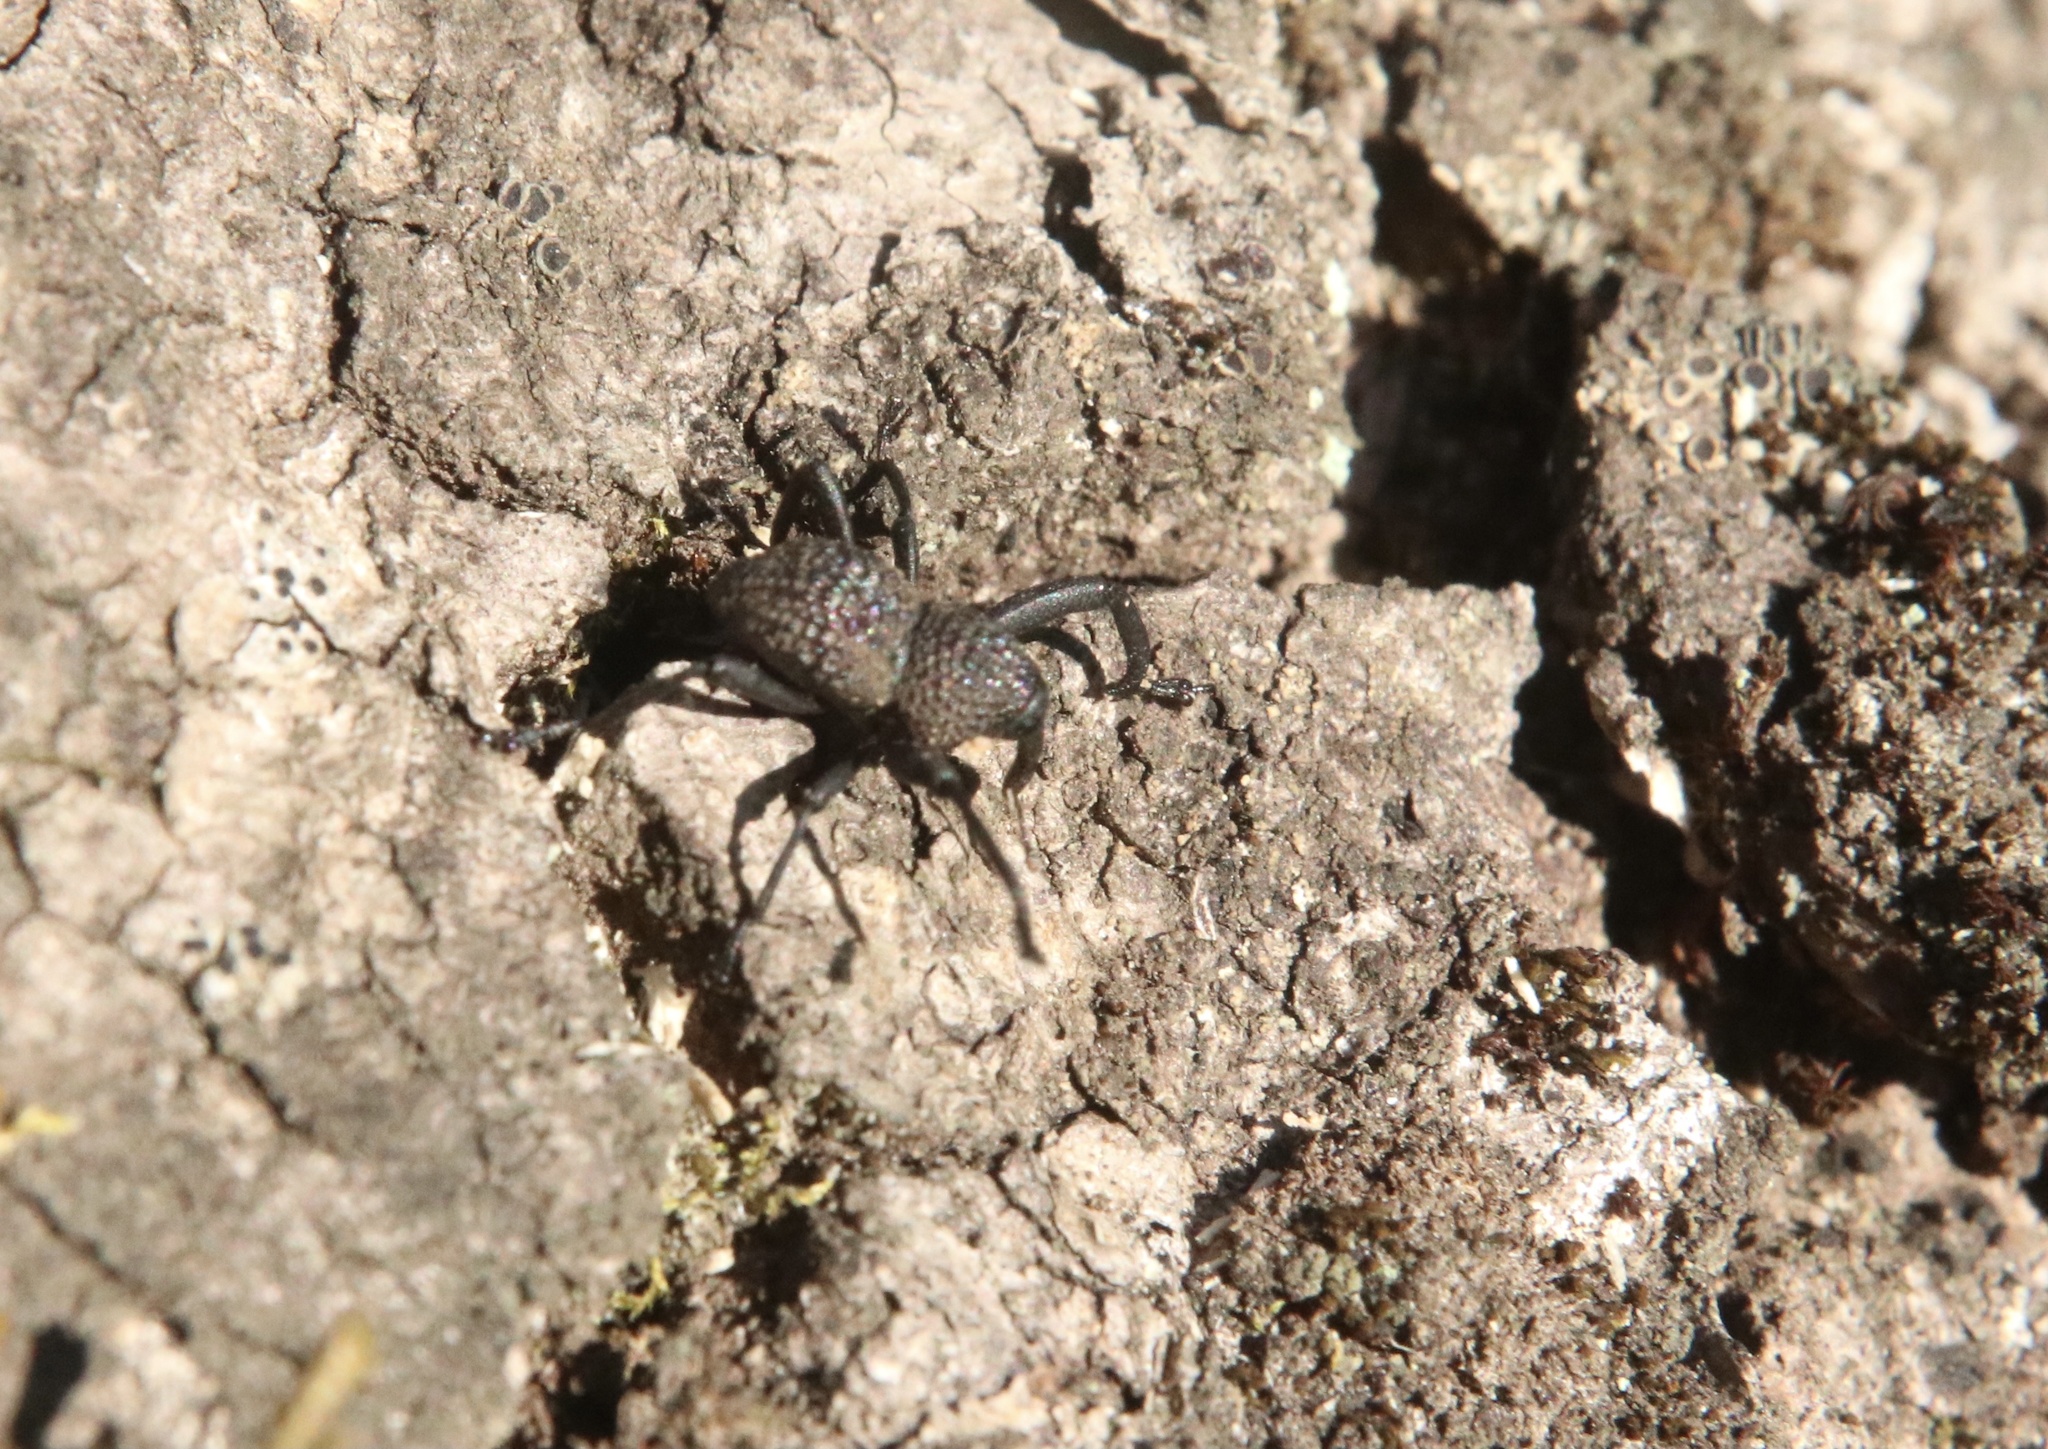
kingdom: Animalia
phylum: Arthropoda
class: Insecta
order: Coleoptera
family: Curculionidae
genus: Rhyephenes
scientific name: Rhyephenes maillei
